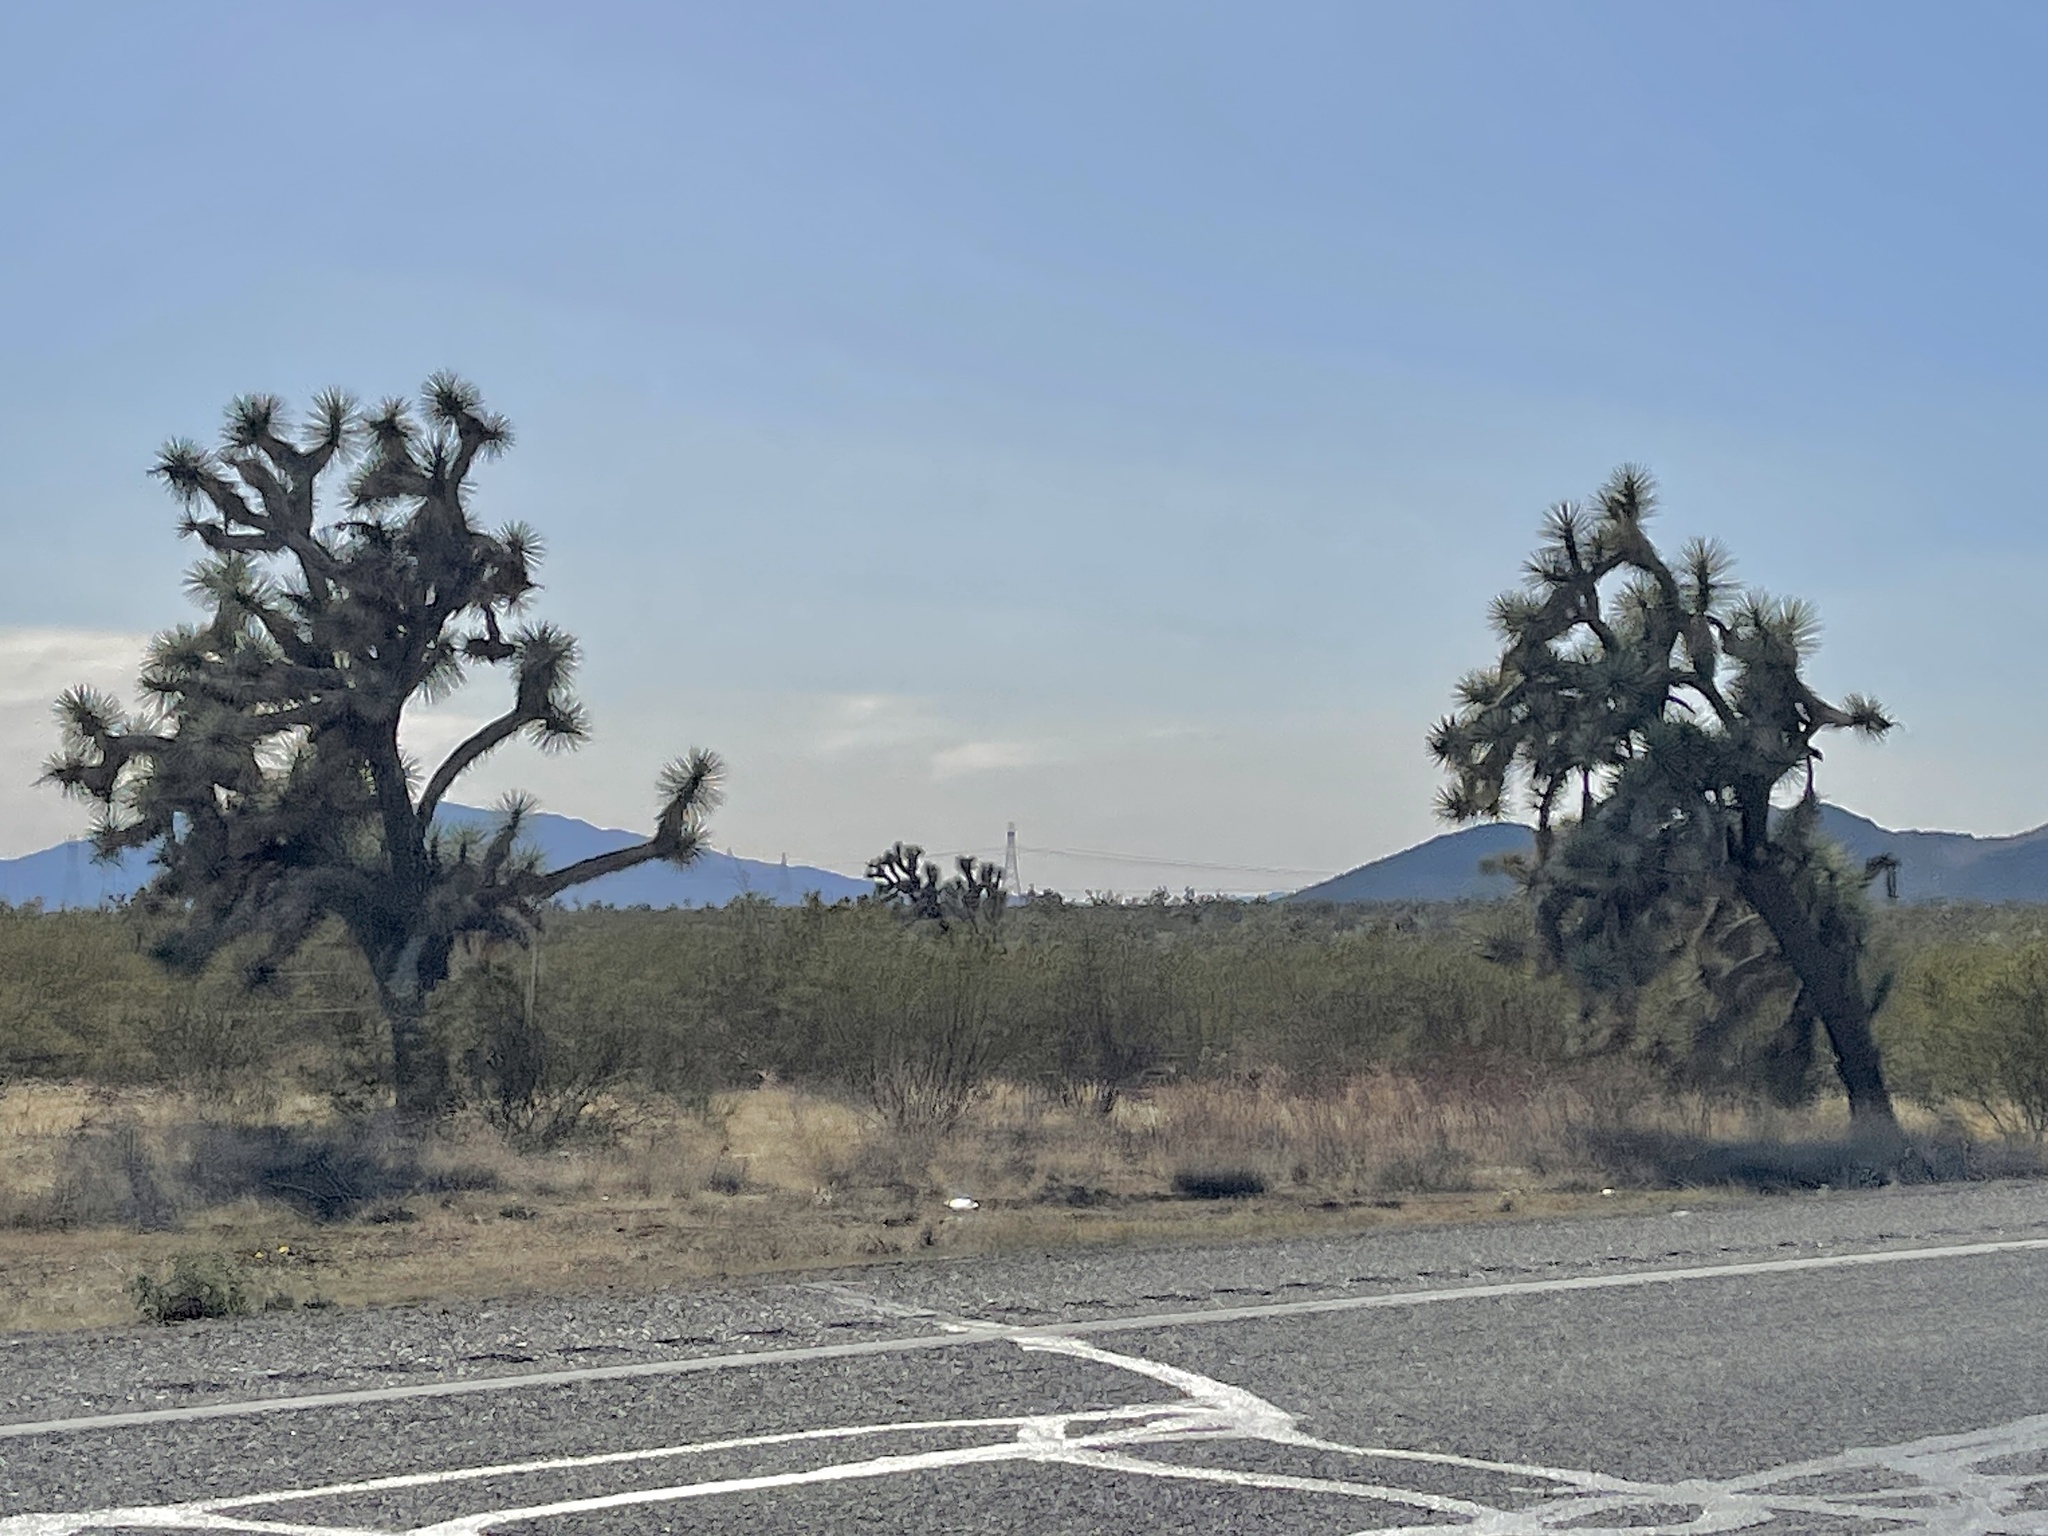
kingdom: Plantae
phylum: Tracheophyta
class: Liliopsida
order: Asparagales
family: Asparagaceae
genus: Yucca
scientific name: Yucca brevifolia
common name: Joshua tree
